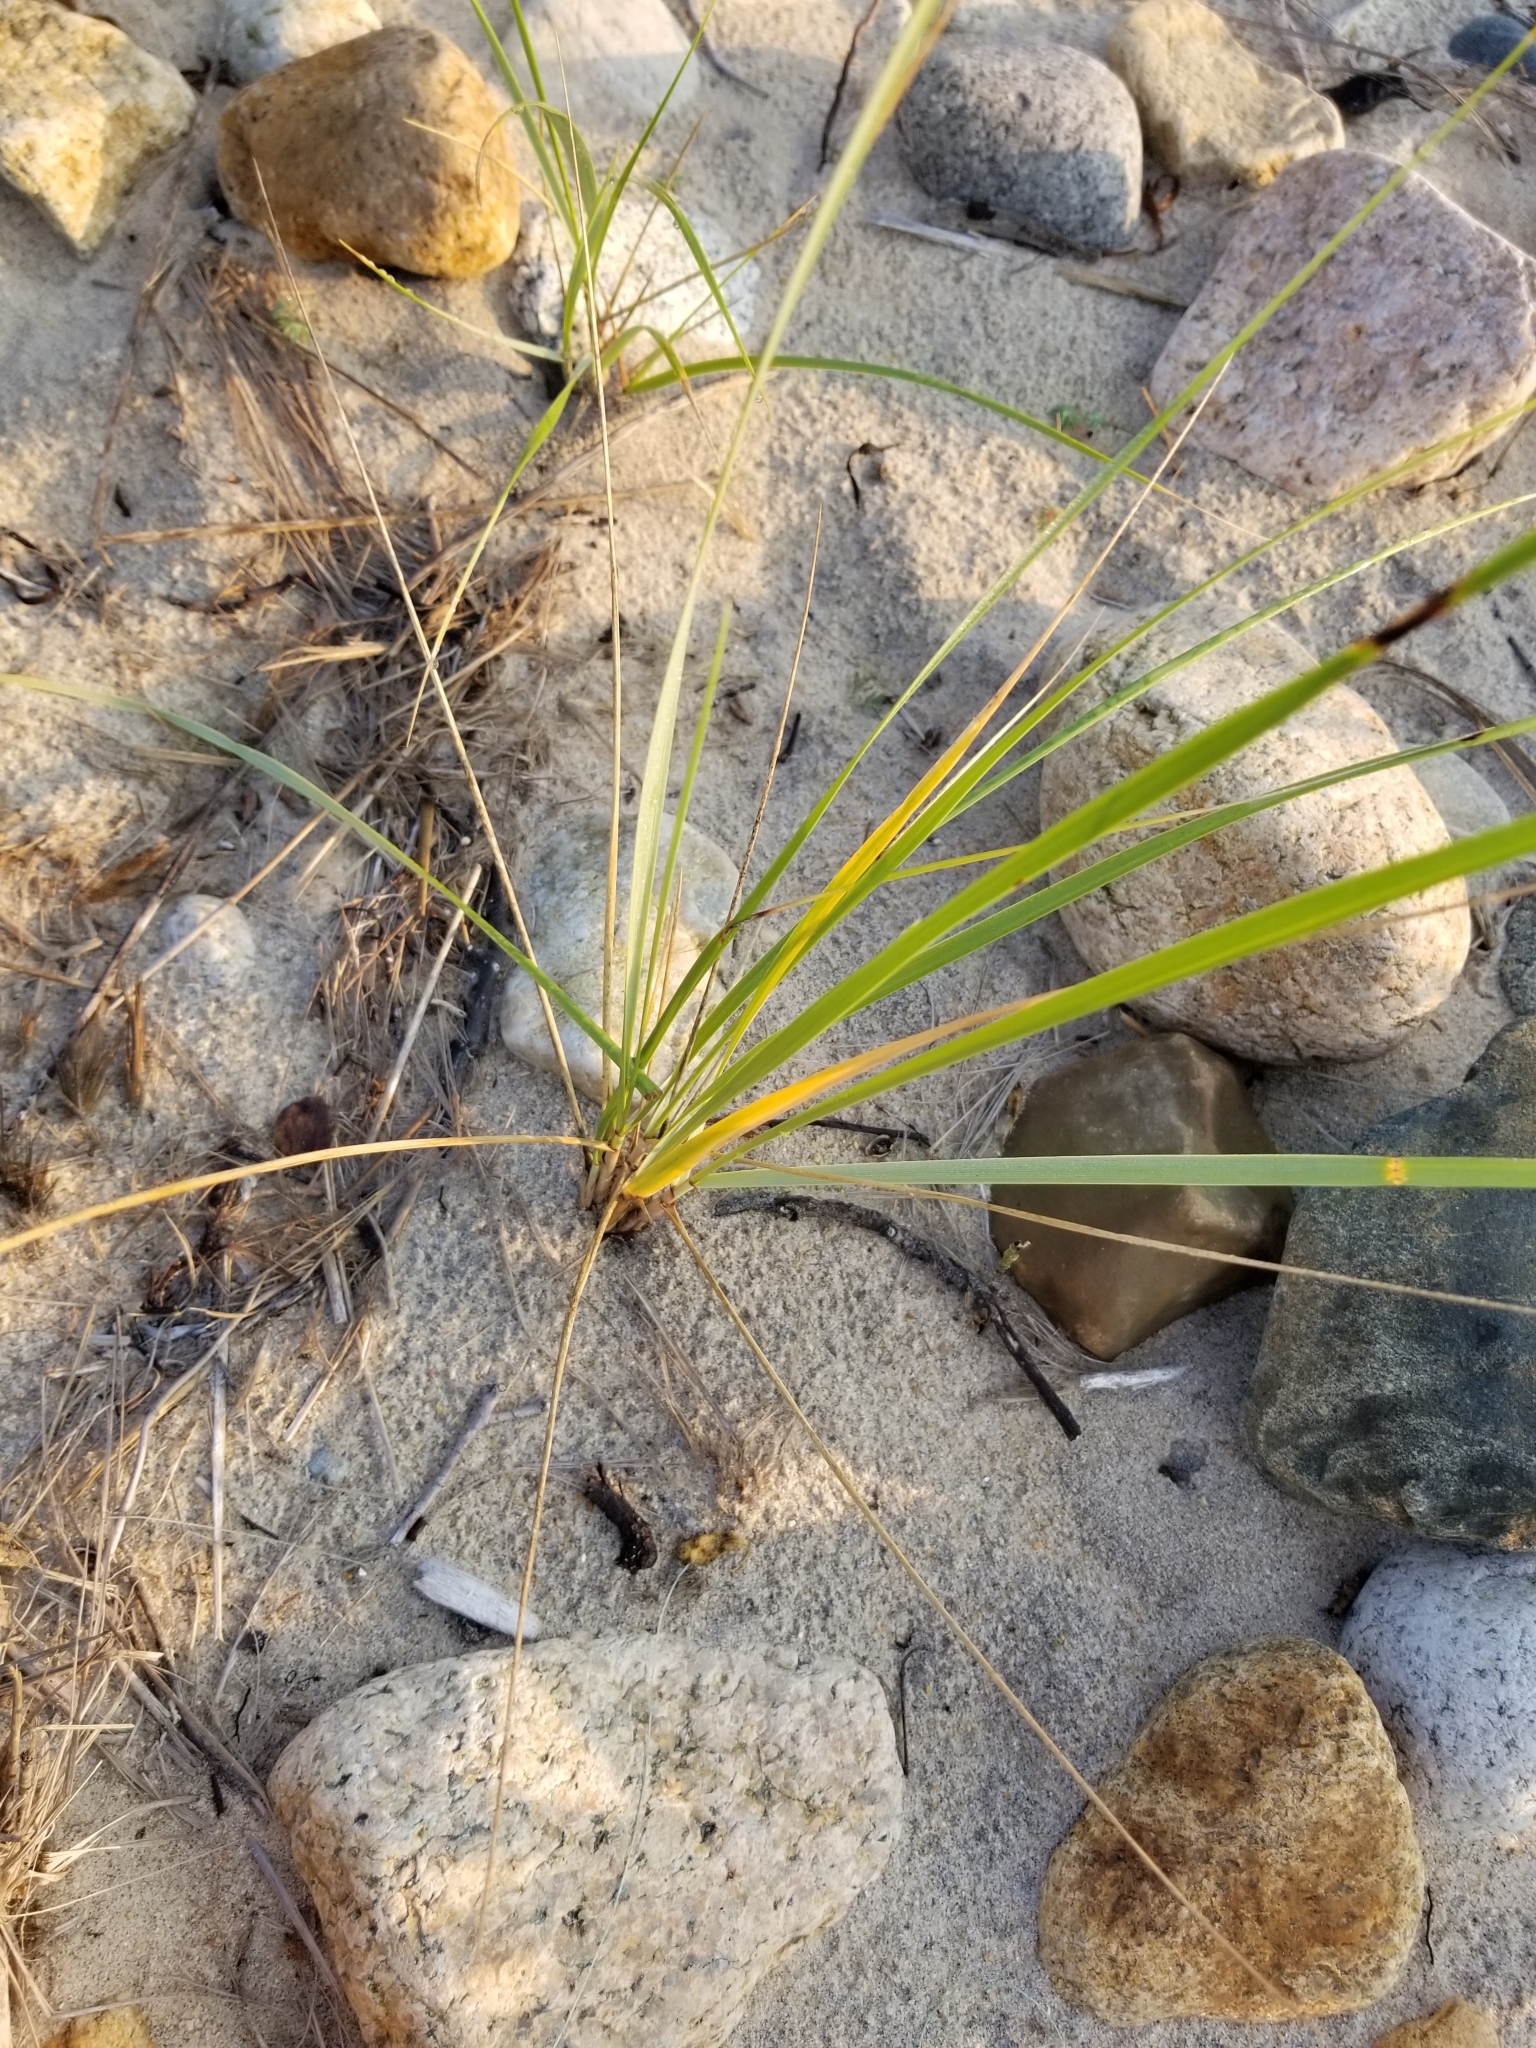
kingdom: Plantae
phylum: Tracheophyta
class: Liliopsida
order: Poales
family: Poaceae
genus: Calamagrostis
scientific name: Calamagrostis breviligulata
